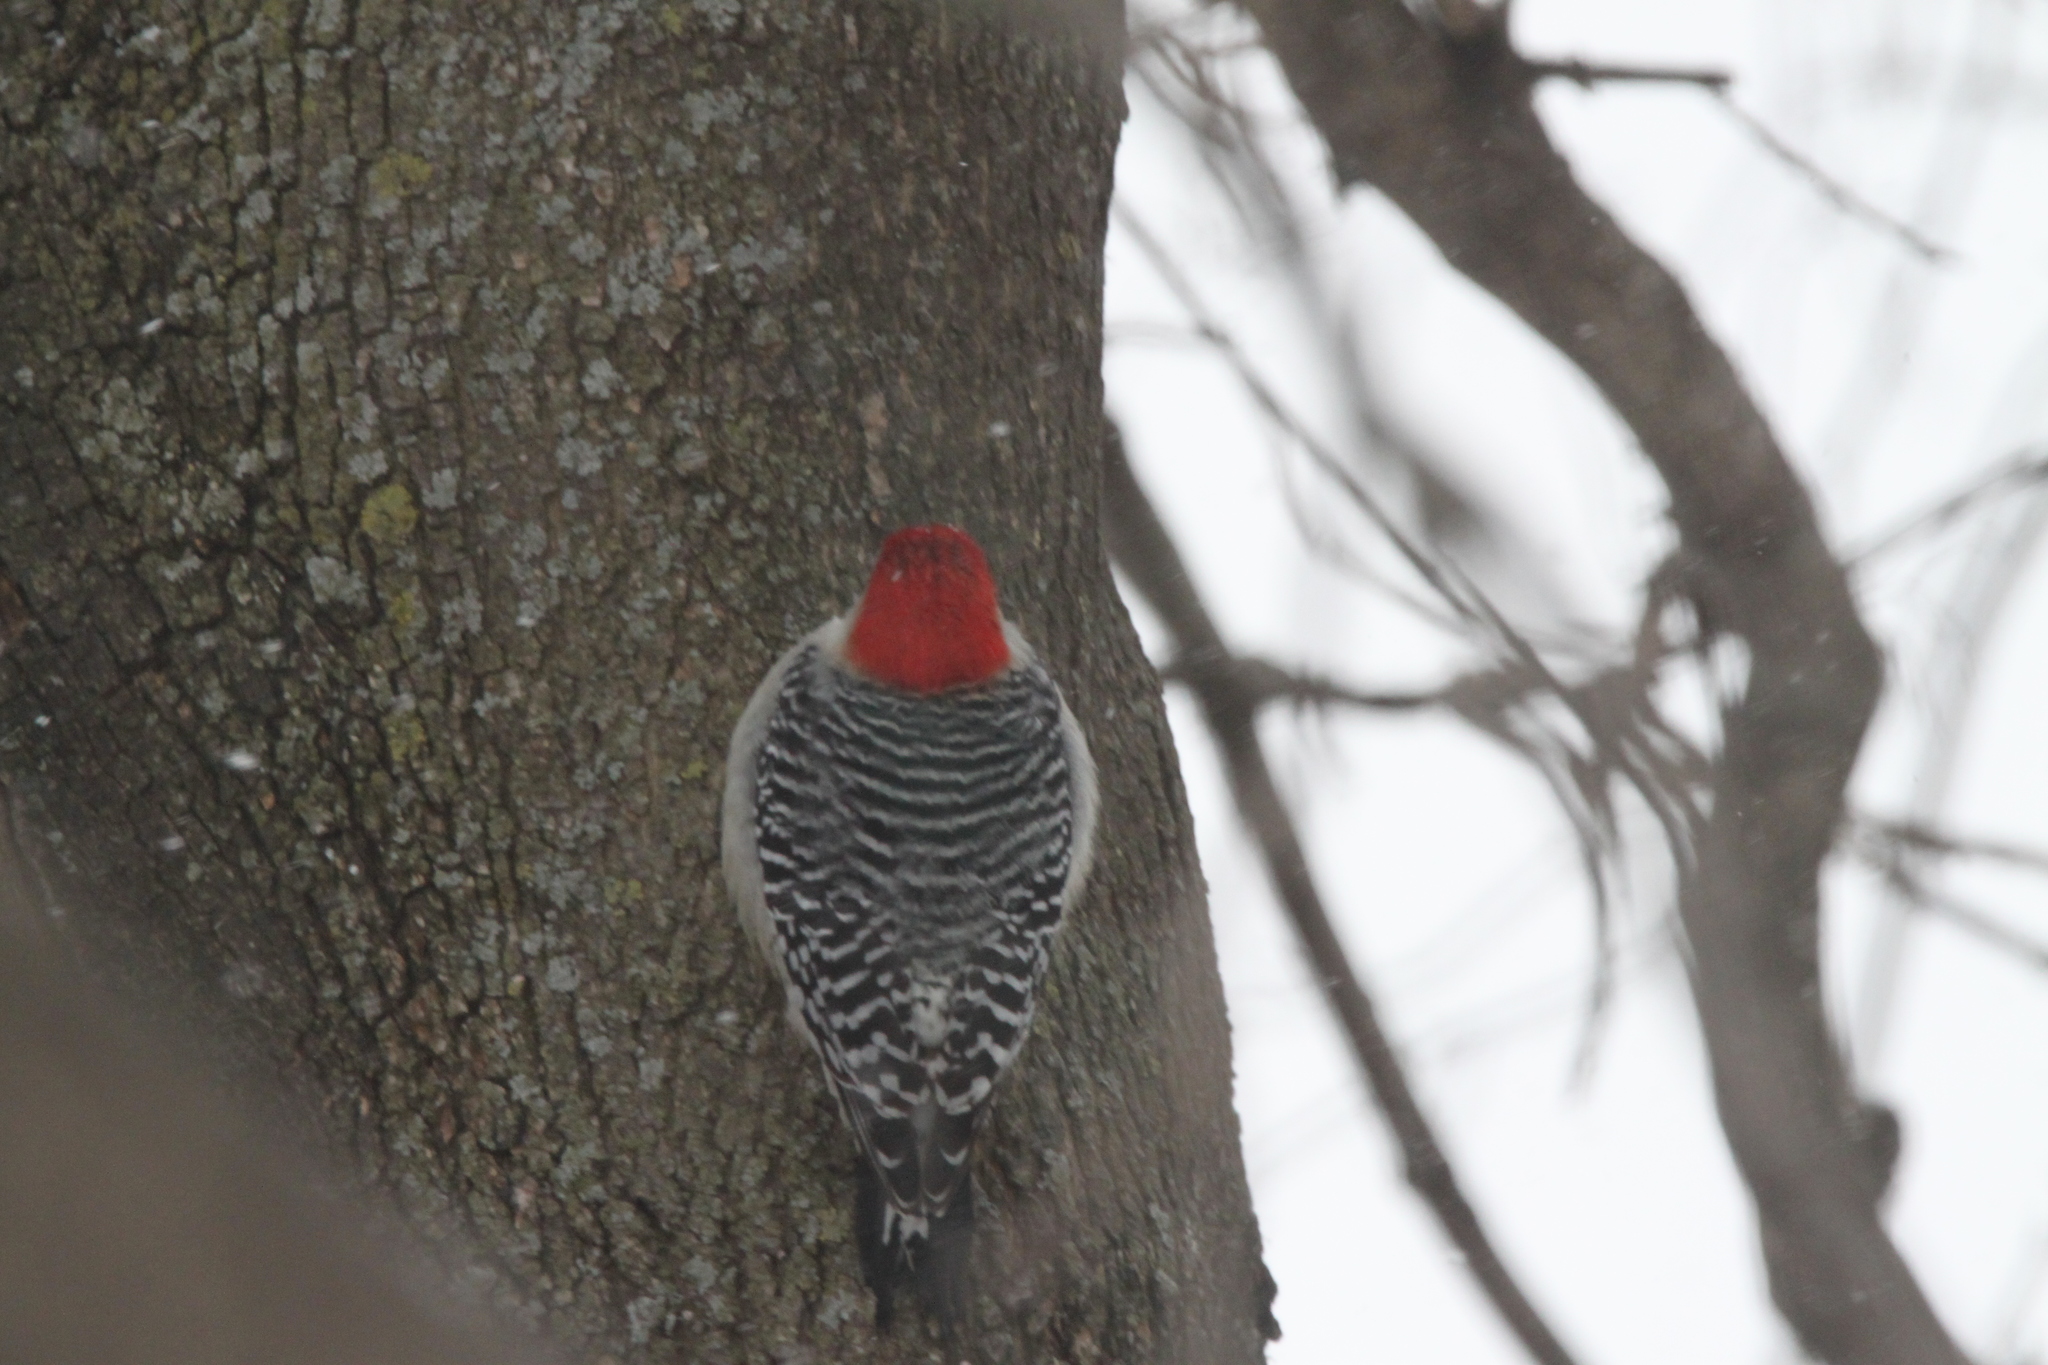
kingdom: Animalia
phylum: Chordata
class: Aves
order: Piciformes
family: Picidae
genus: Melanerpes
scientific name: Melanerpes carolinus
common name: Red-bellied woodpecker
